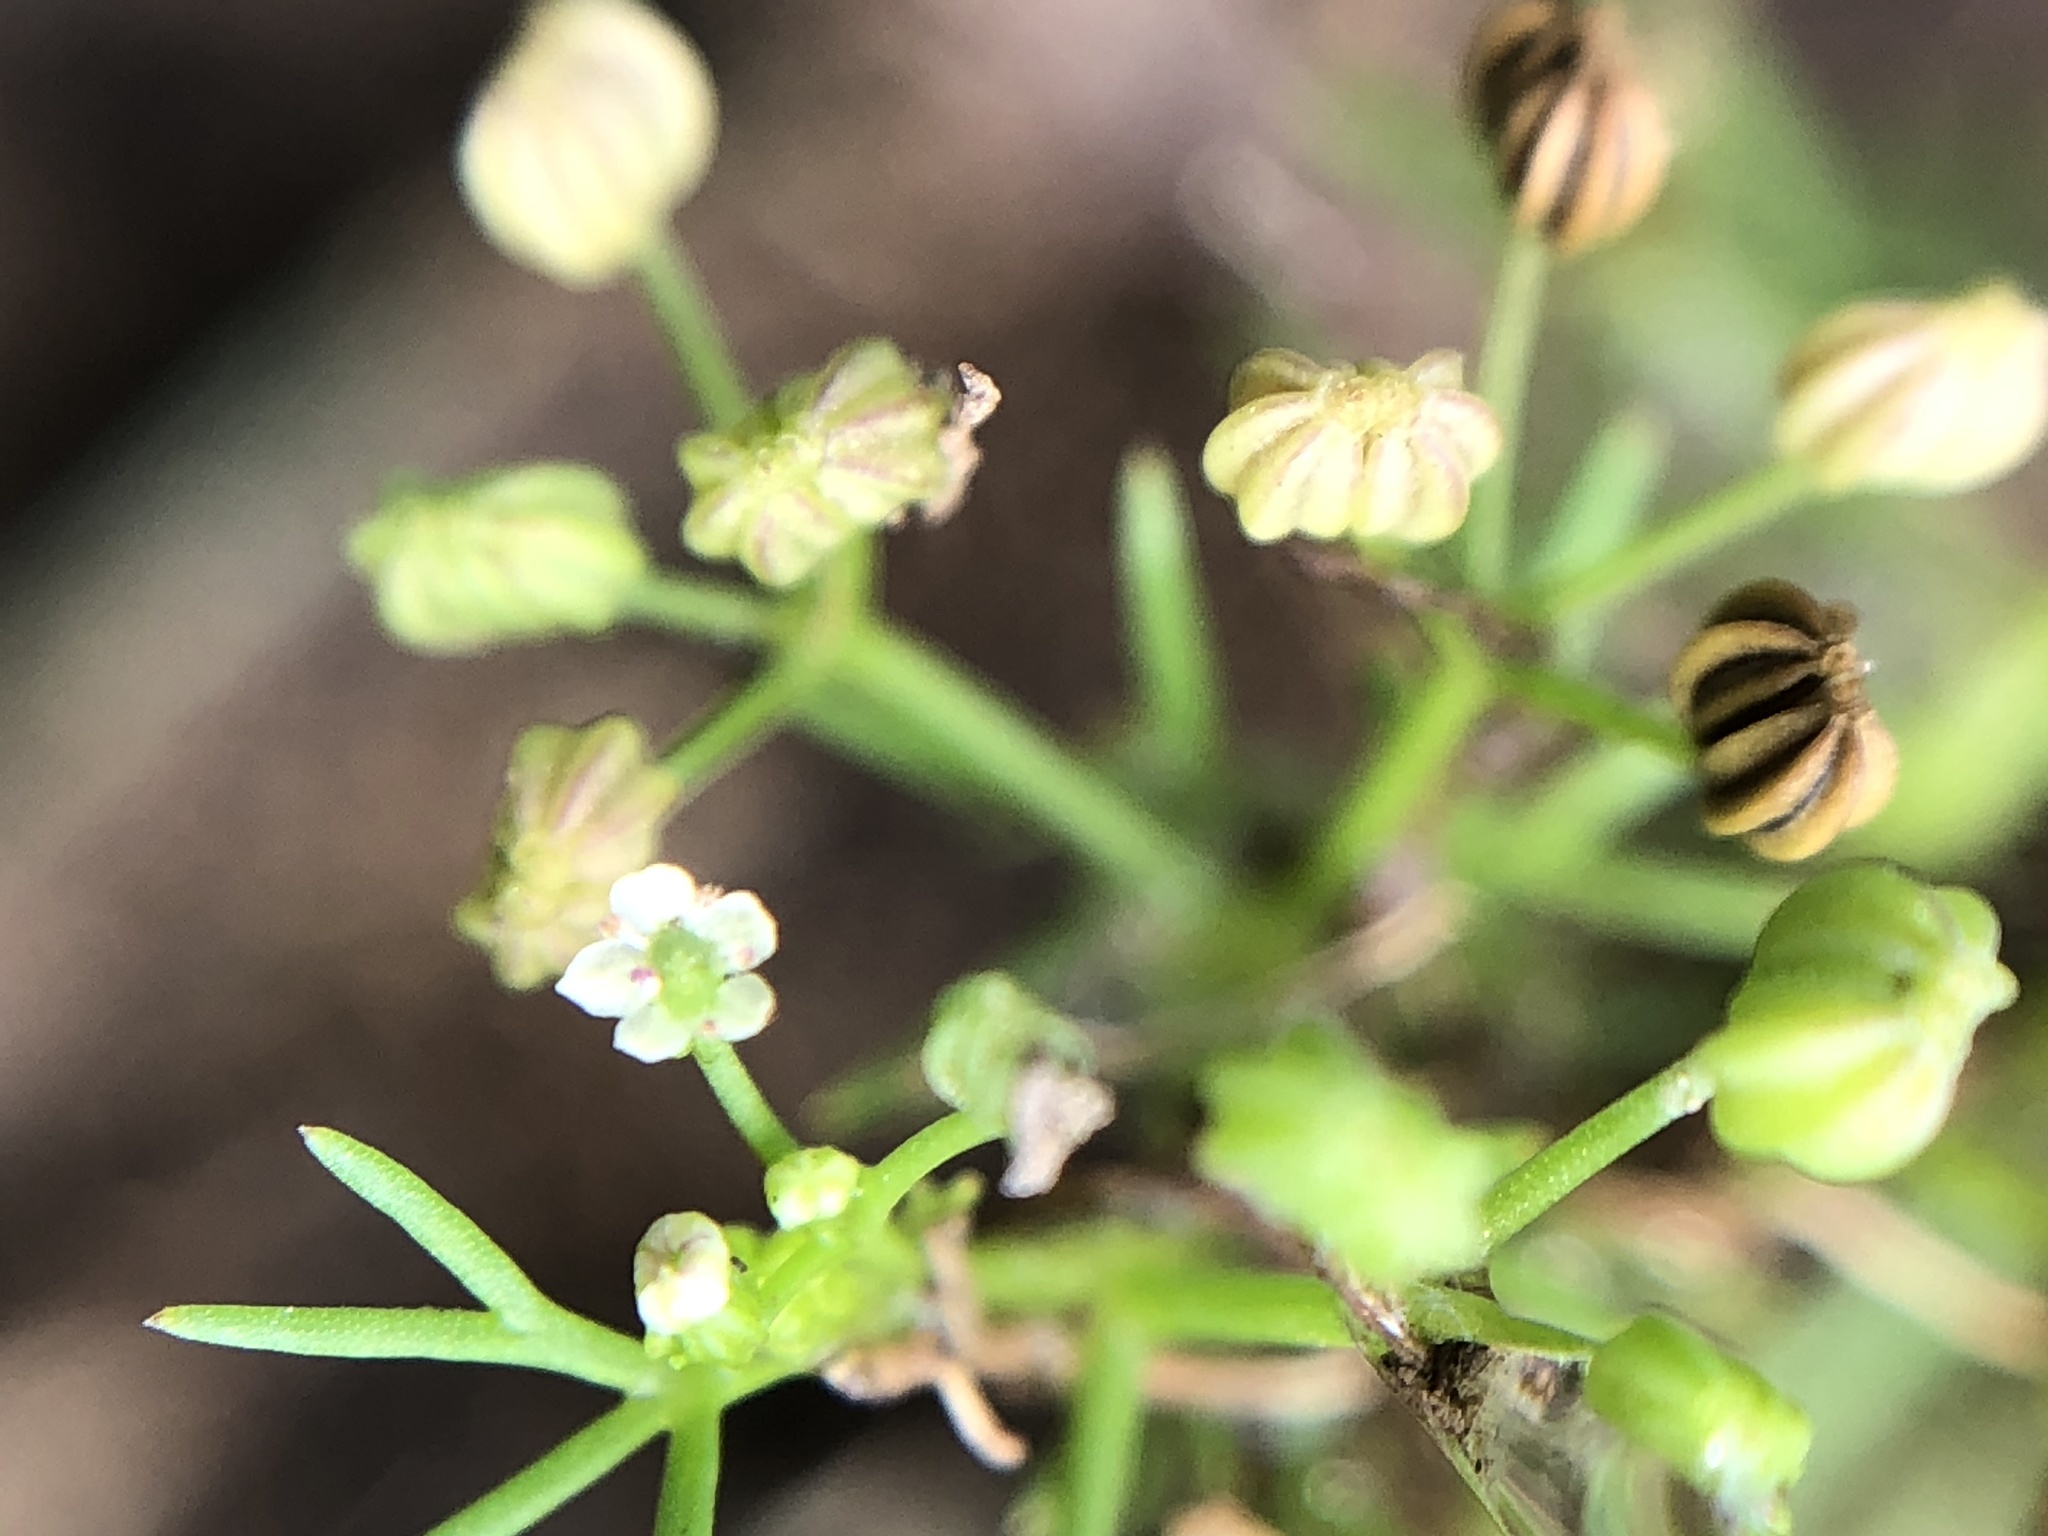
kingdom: Plantae
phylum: Tracheophyta
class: Magnoliopsida
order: Apiales
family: Apiaceae
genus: Cyclospermum
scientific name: Cyclospermum leptophyllum
